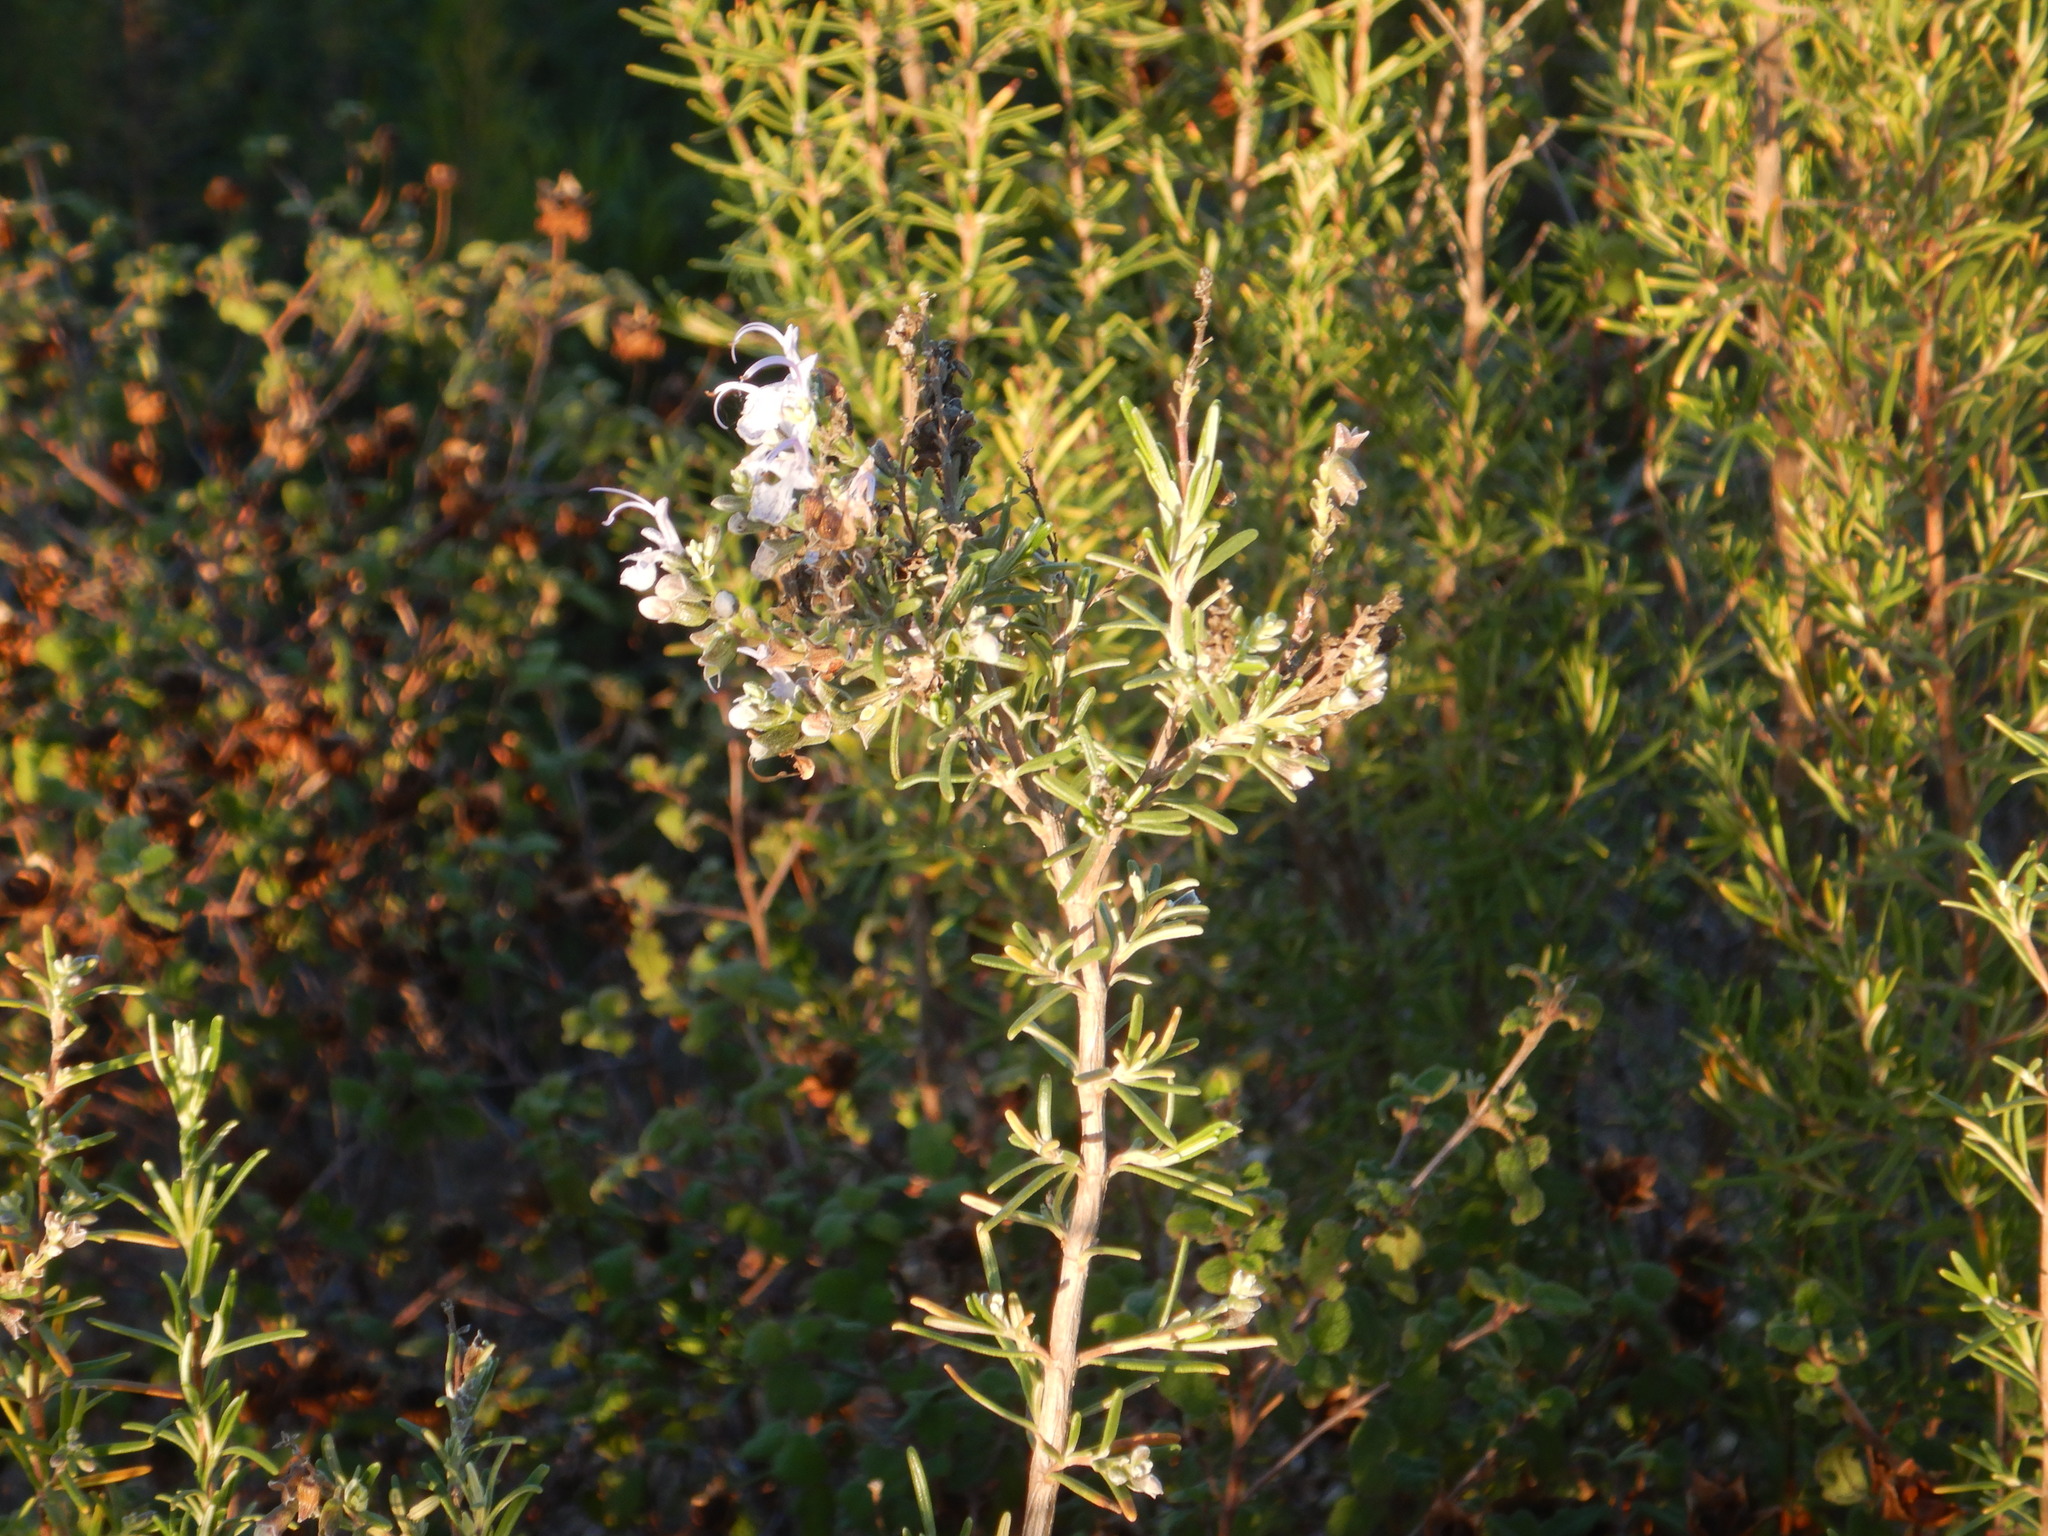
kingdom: Plantae
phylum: Tracheophyta
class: Magnoliopsida
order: Lamiales
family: Lamiaceae
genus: Salvia
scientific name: Salvia rosmarinus
